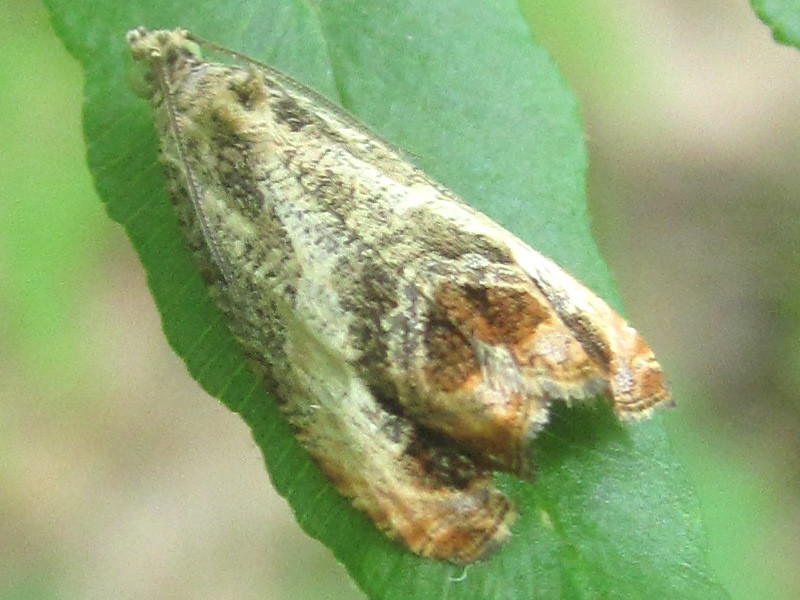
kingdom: Animalia
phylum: Arthropoda
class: Insecta
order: Lepidoptera
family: Tortricidae
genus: Olethreutes
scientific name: Olethreutes hamameliana
